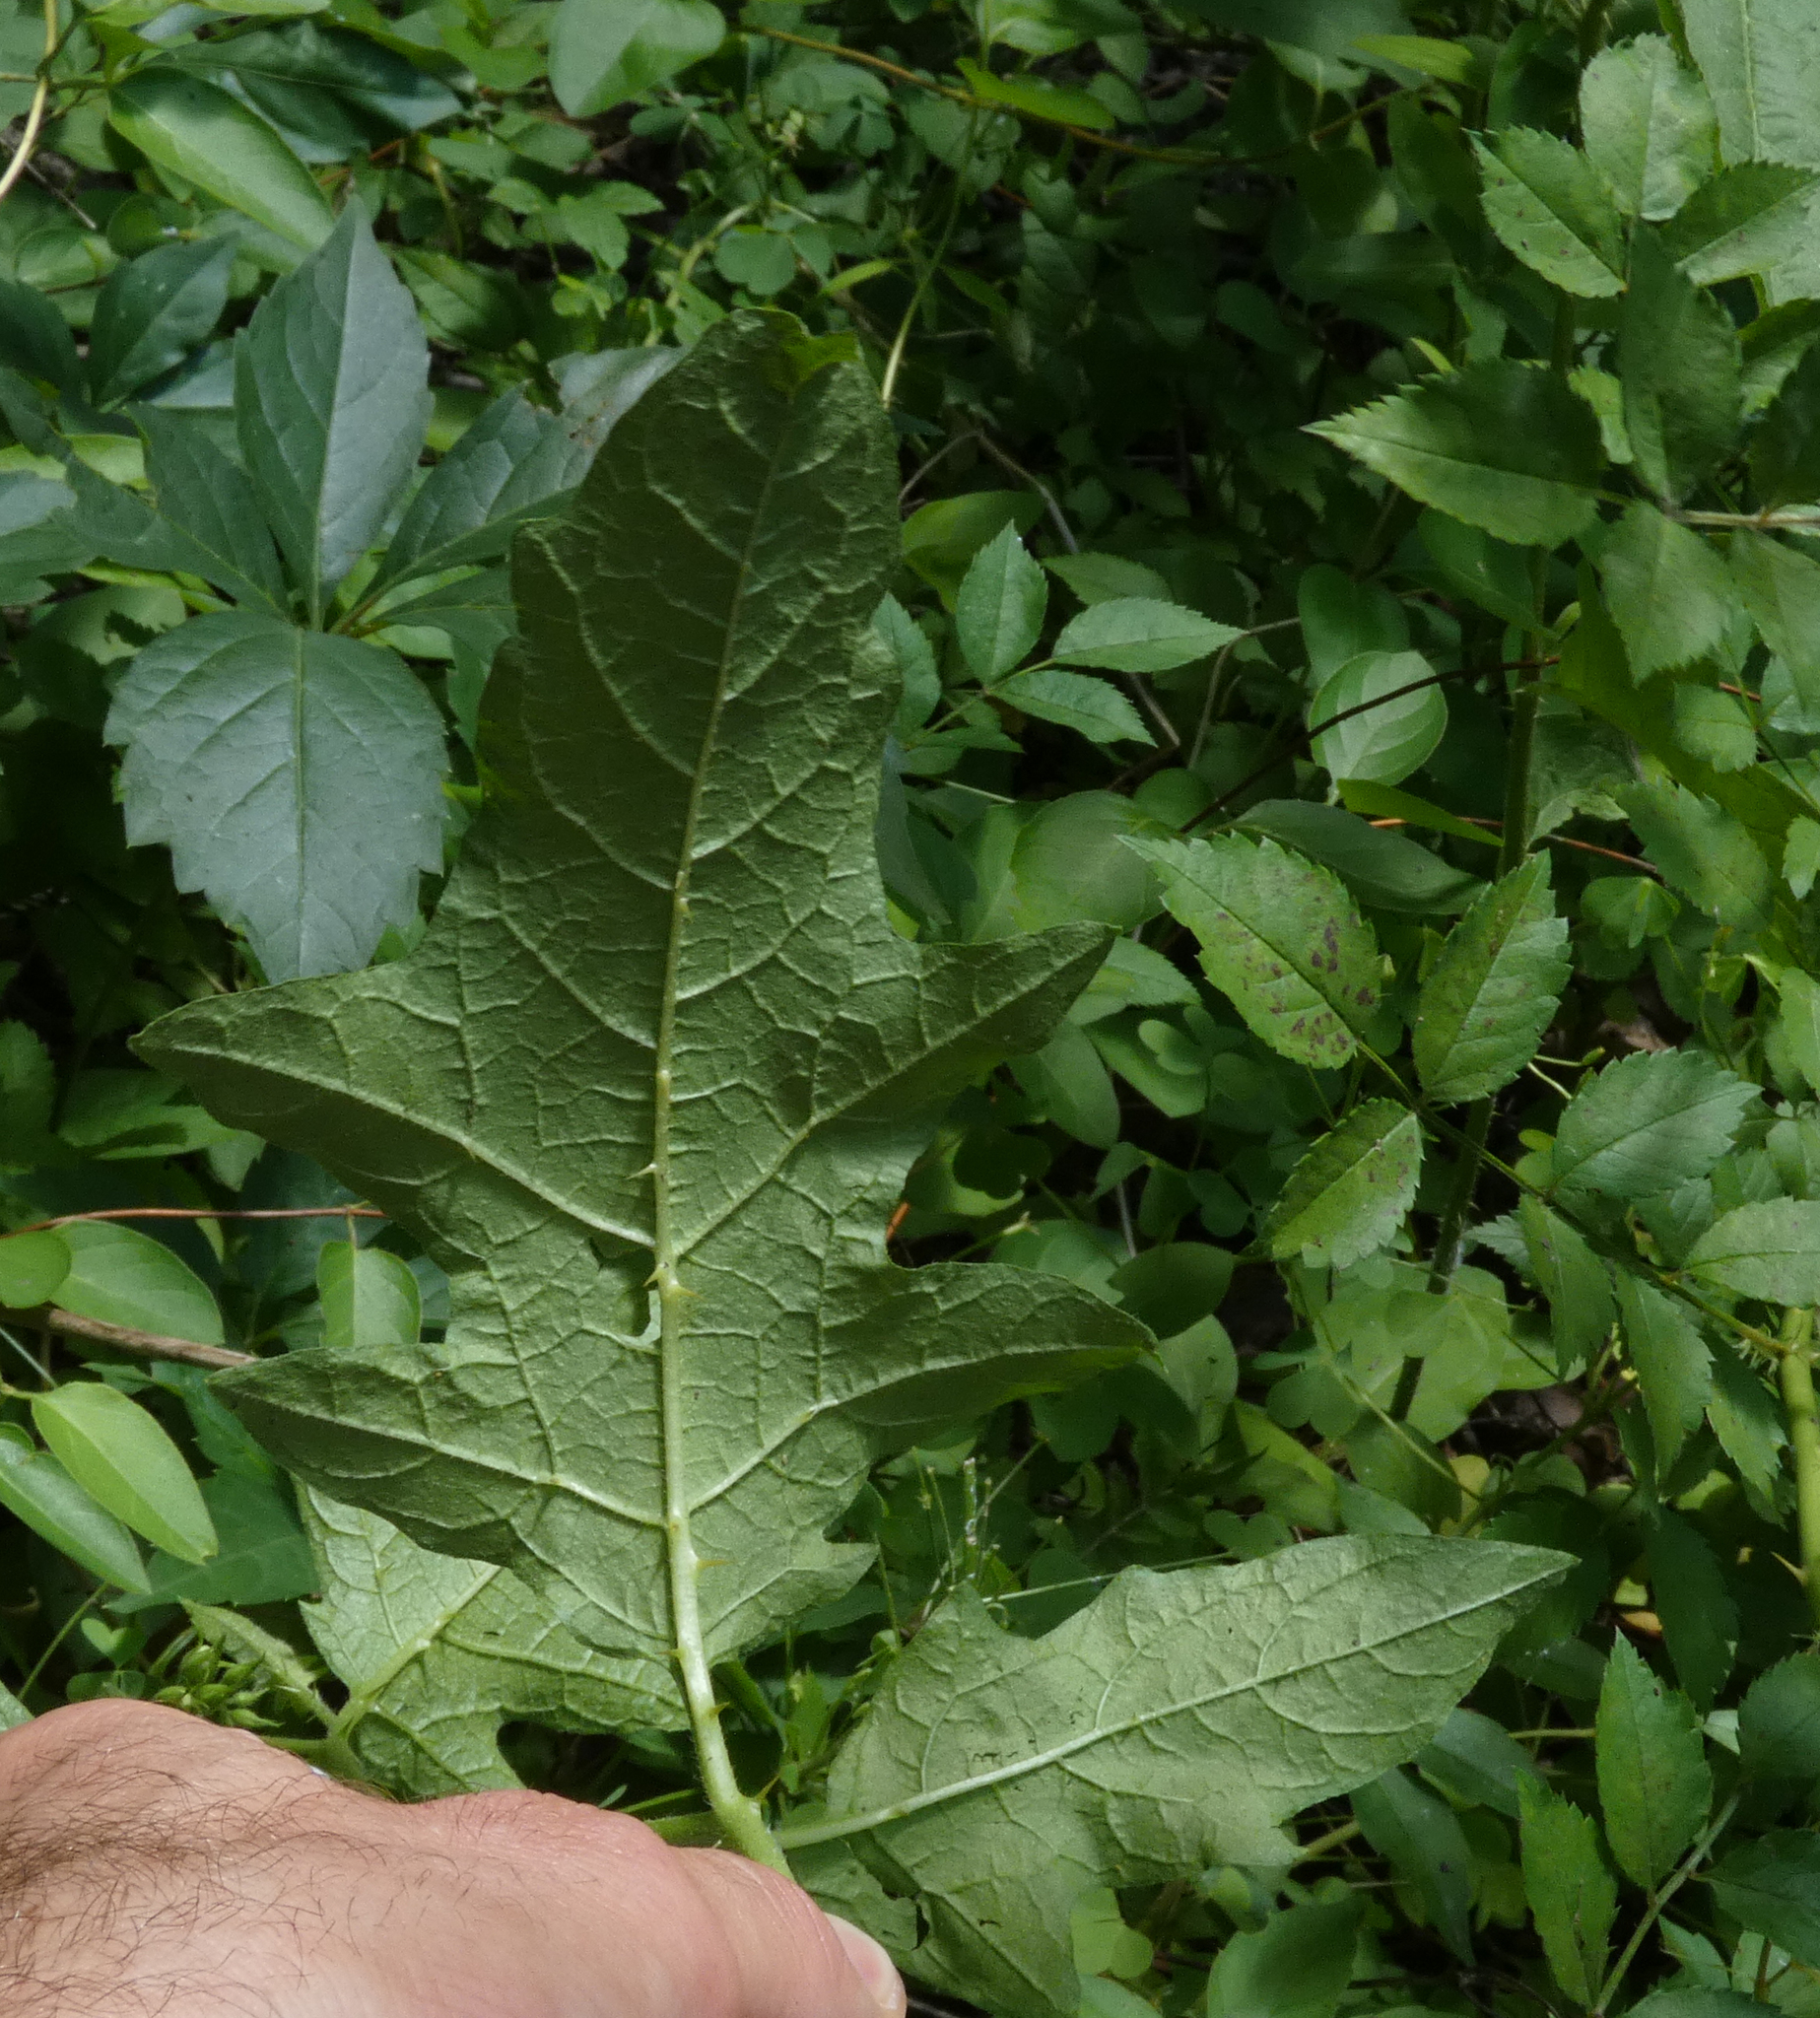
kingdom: Plantae
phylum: Tracheophyta
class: Magnoliopsida
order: Solanales
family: Solanaceae
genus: Solanum
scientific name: Solanum carolinense
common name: Horse-nettle
